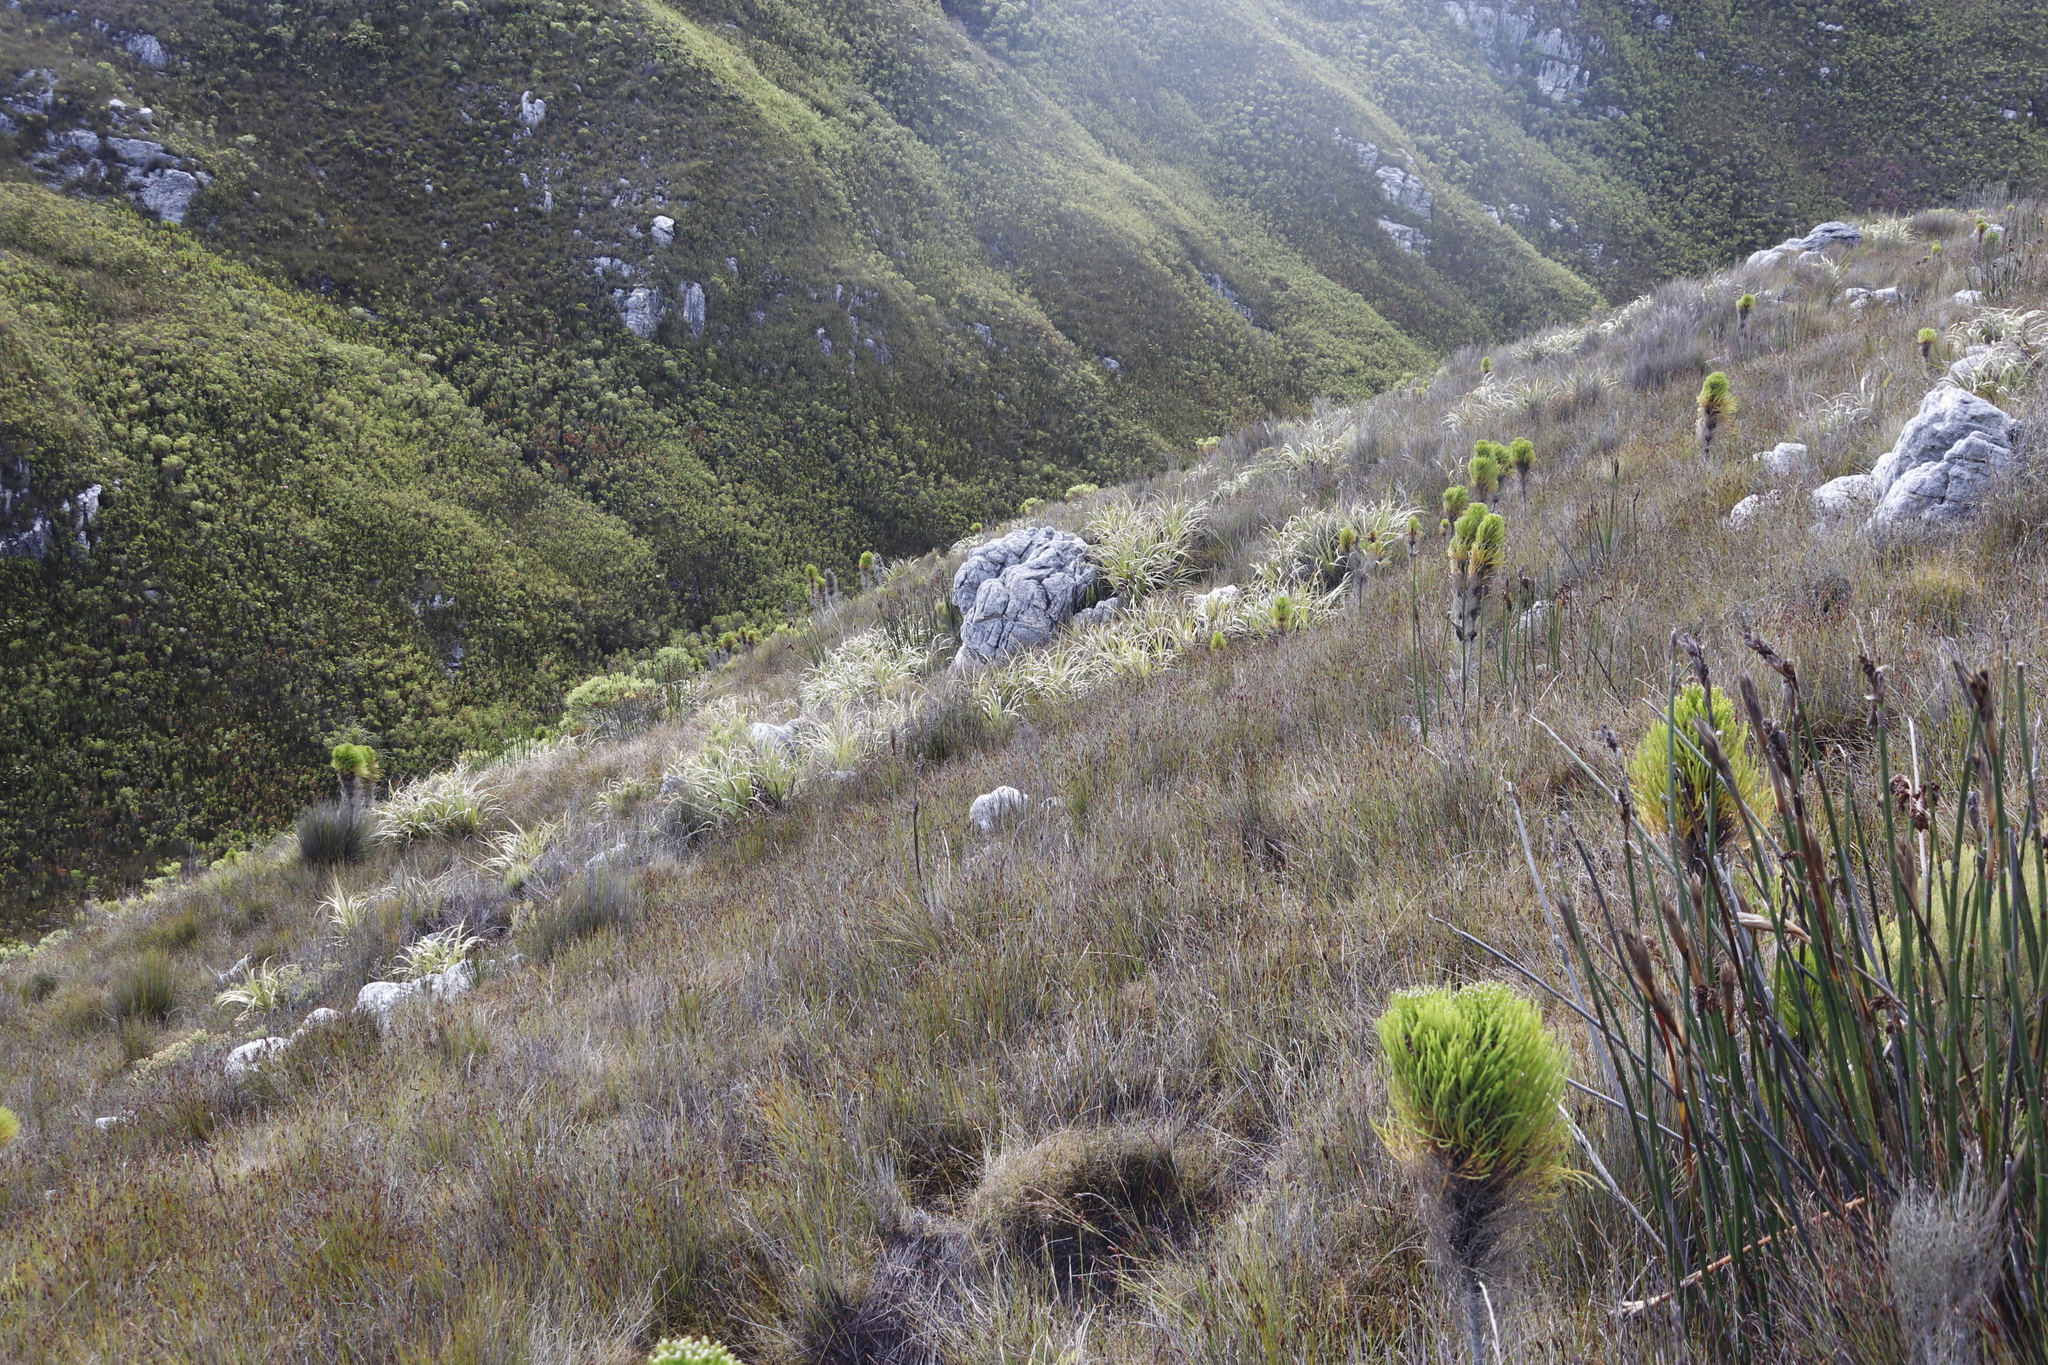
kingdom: Plantae
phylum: Tracheophyta
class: Liliopsida
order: Poales
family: Cyperaceae
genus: Tetraria
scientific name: Tetraria thermalis
